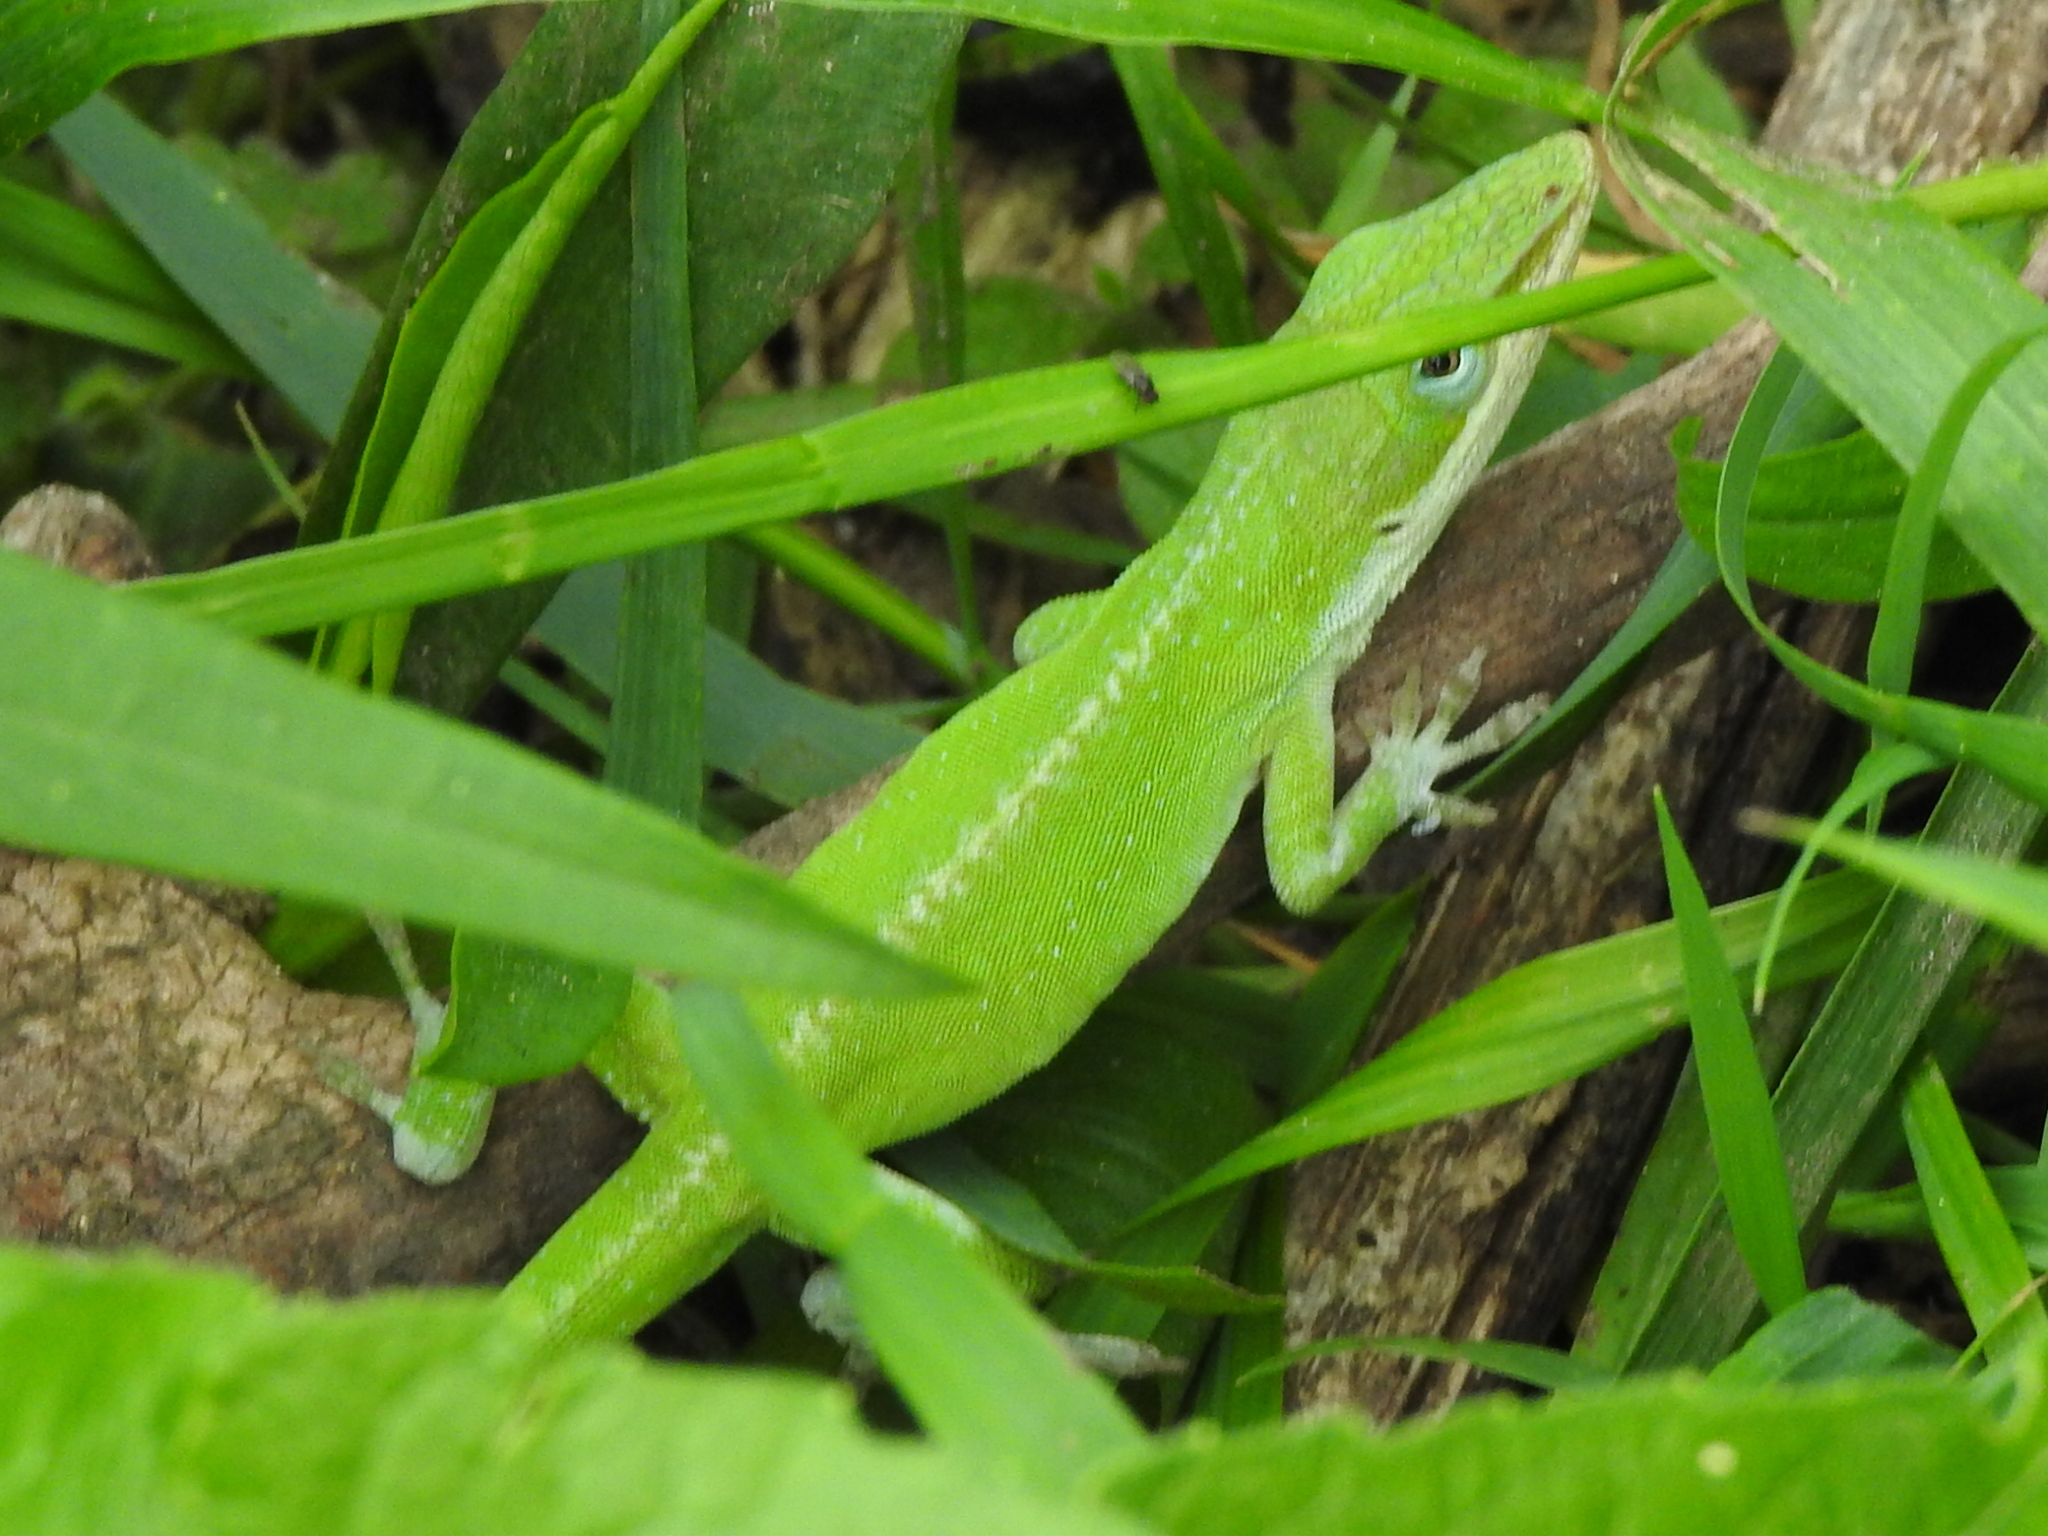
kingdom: Animalia
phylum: Chordata
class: Squamata
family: Dactyloidae
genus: Anolis
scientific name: Anolis carolinensis
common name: Green anole
